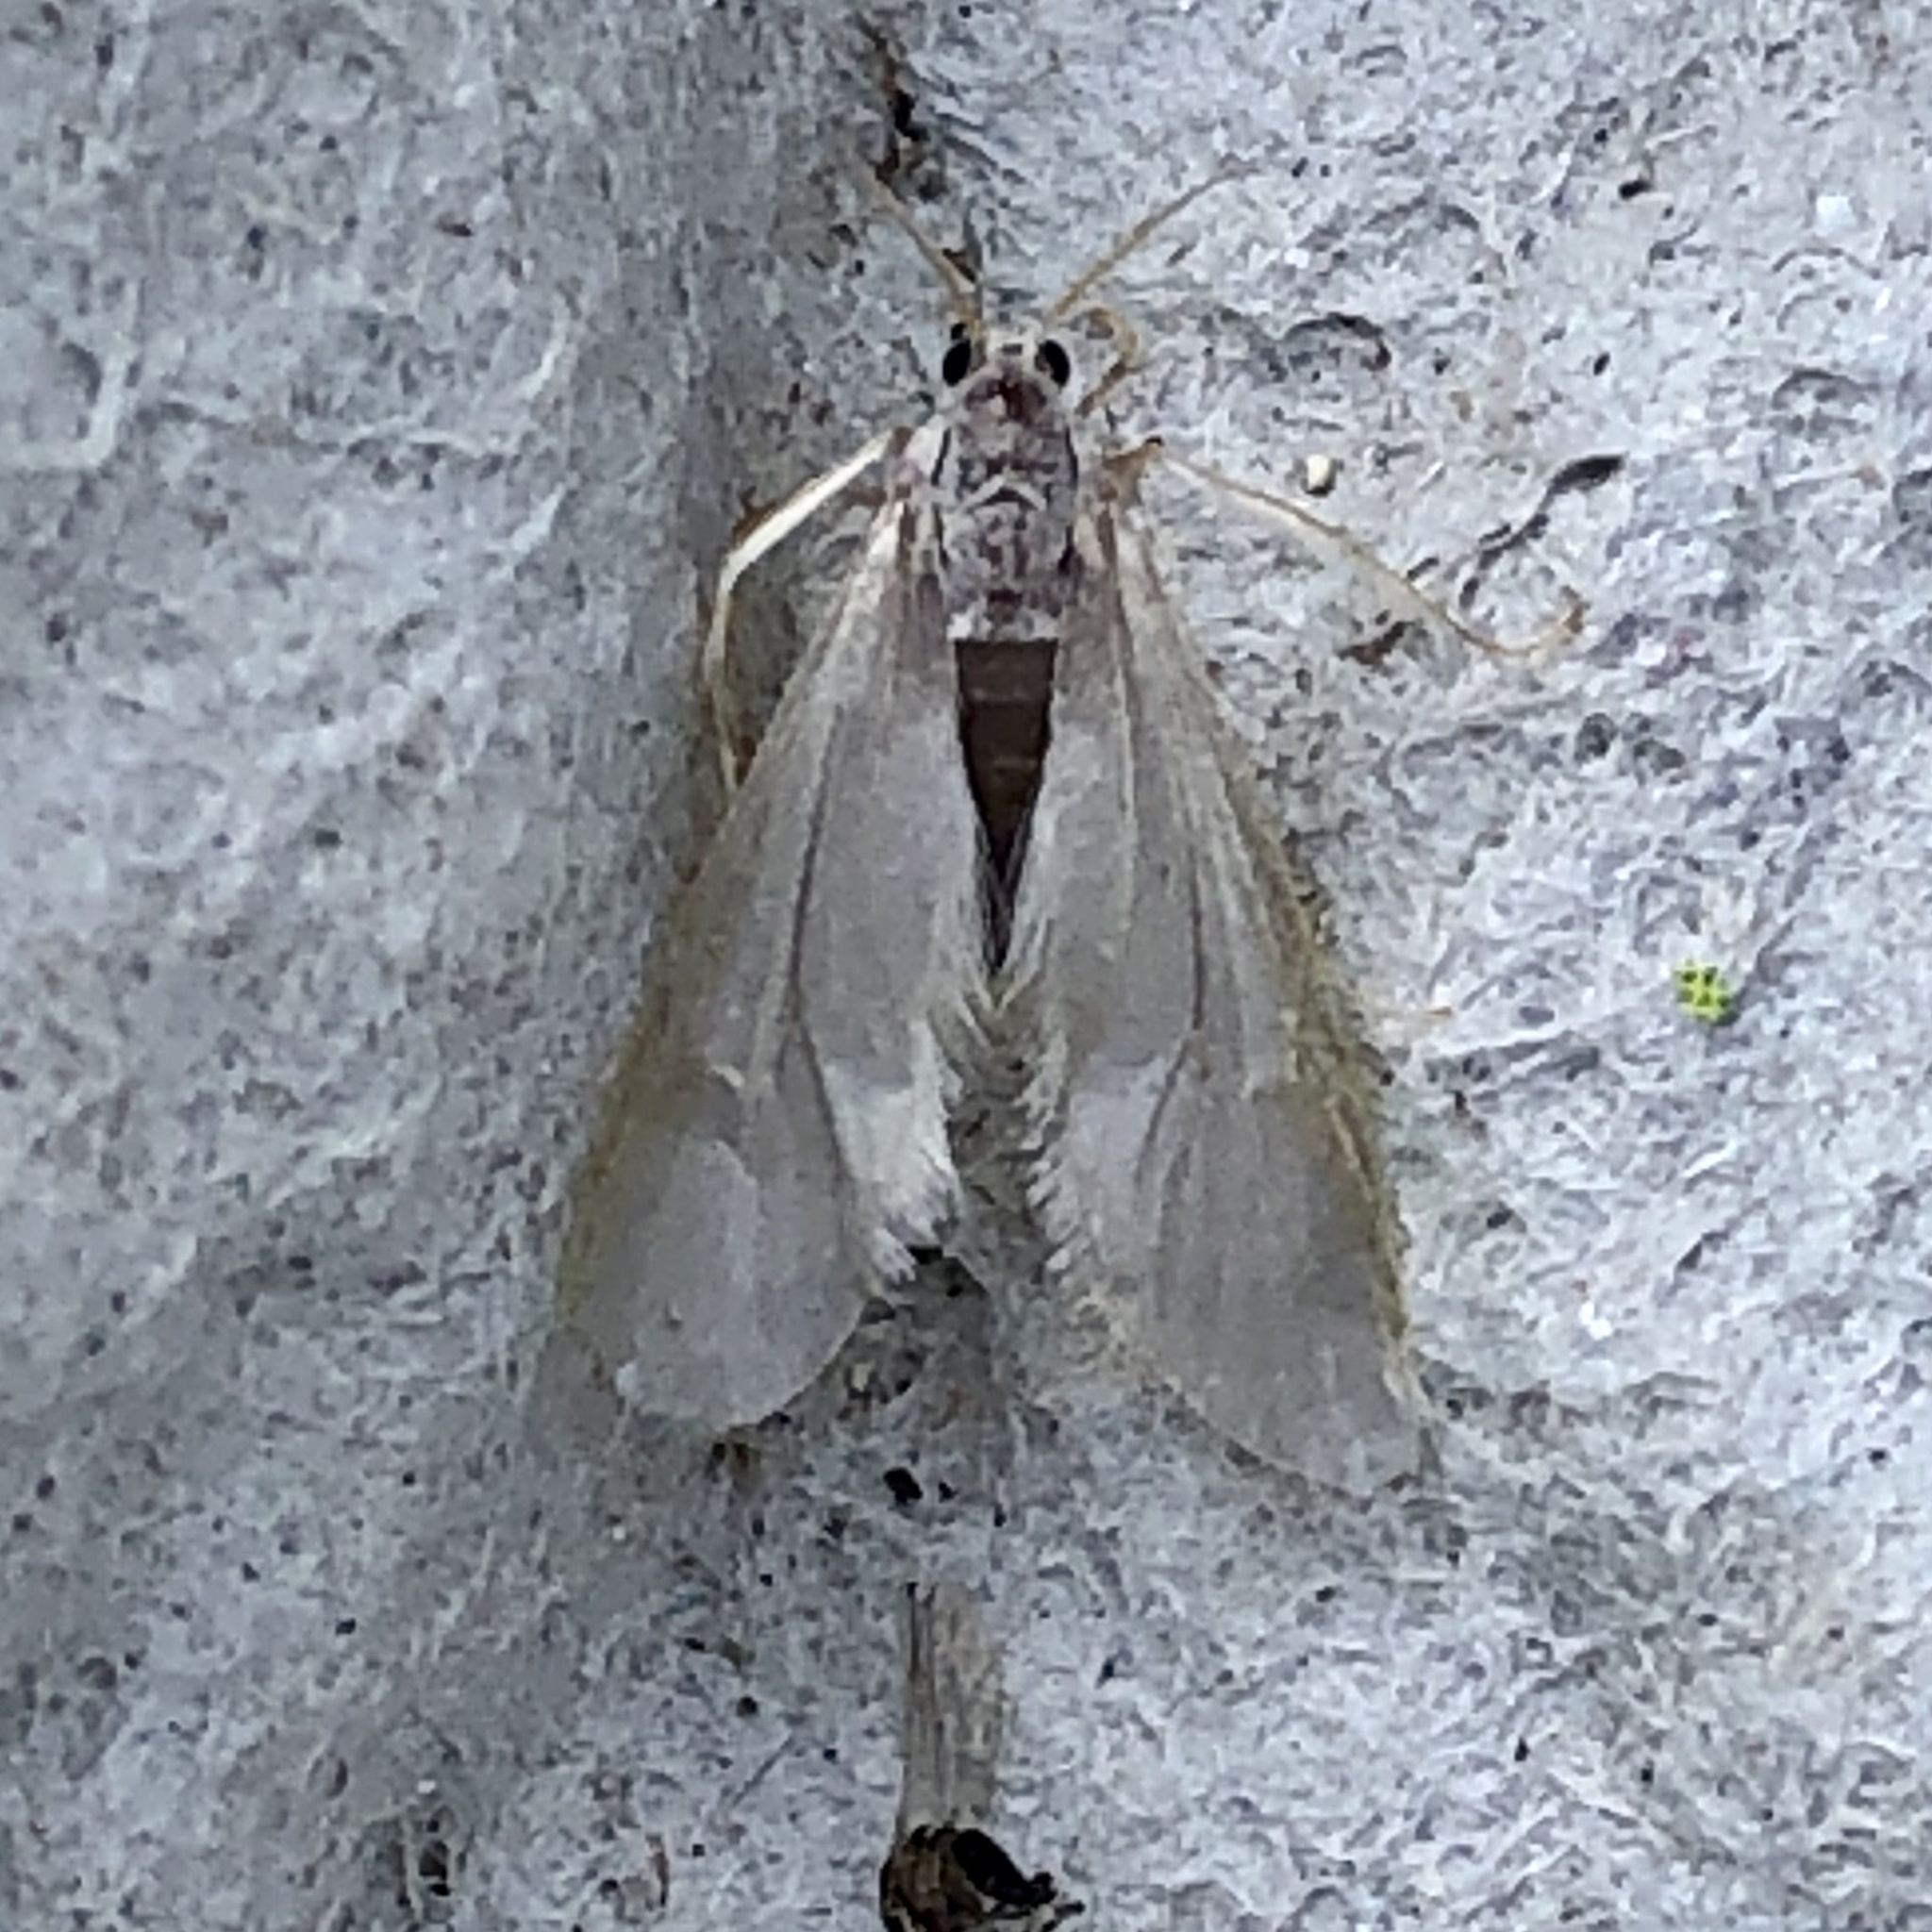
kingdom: Animalia
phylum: Arthropoda
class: Insecta
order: Lepidoptera
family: Crambidae
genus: Acentria
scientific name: Acentria ephemerella
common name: European water moth
